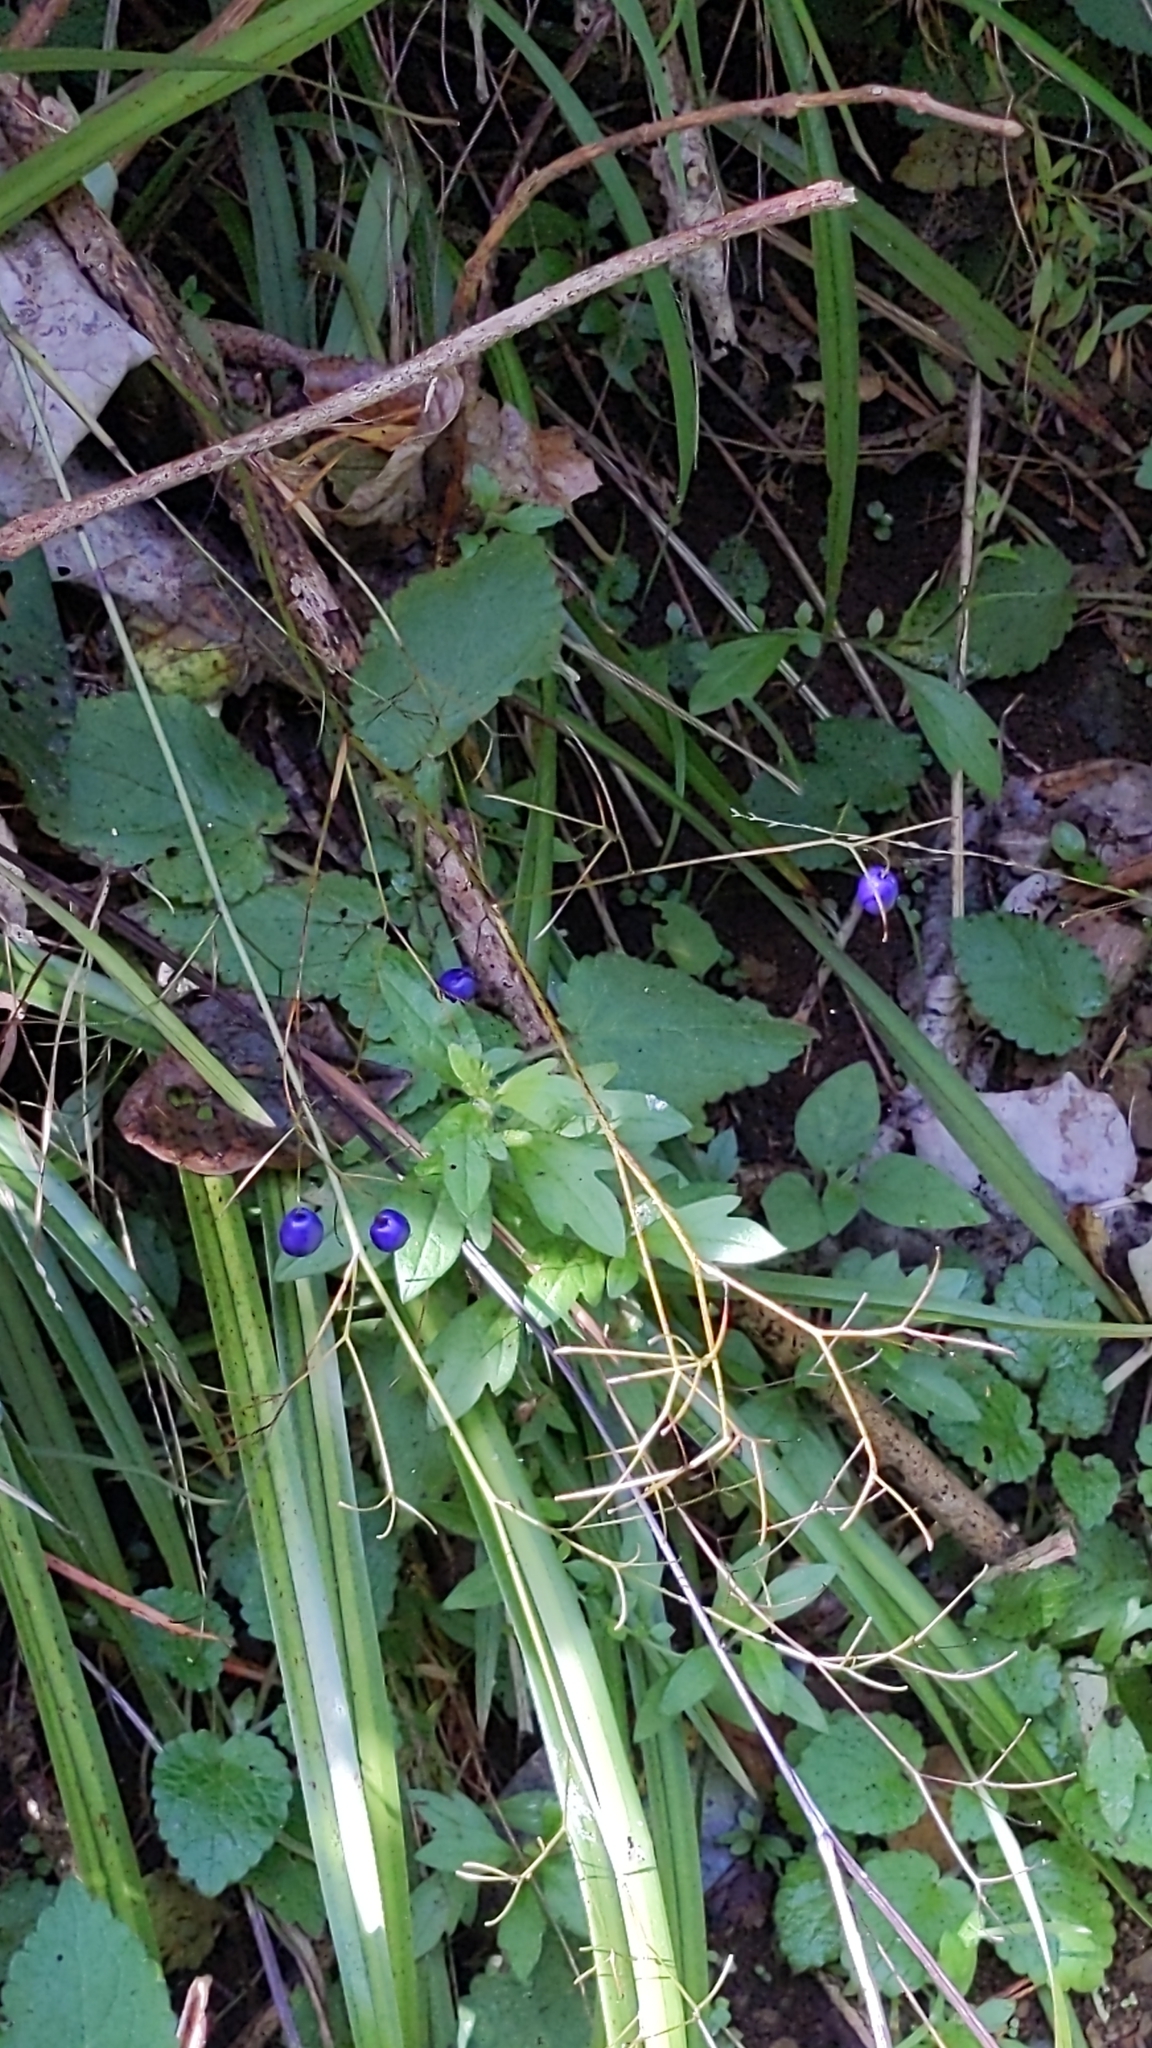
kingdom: Plantae
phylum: Tracheophyta
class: Liliopsida
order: Asparagales
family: Asphodelaceae
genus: Dianella
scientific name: Dianella nigra
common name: New zealand-blueberry
